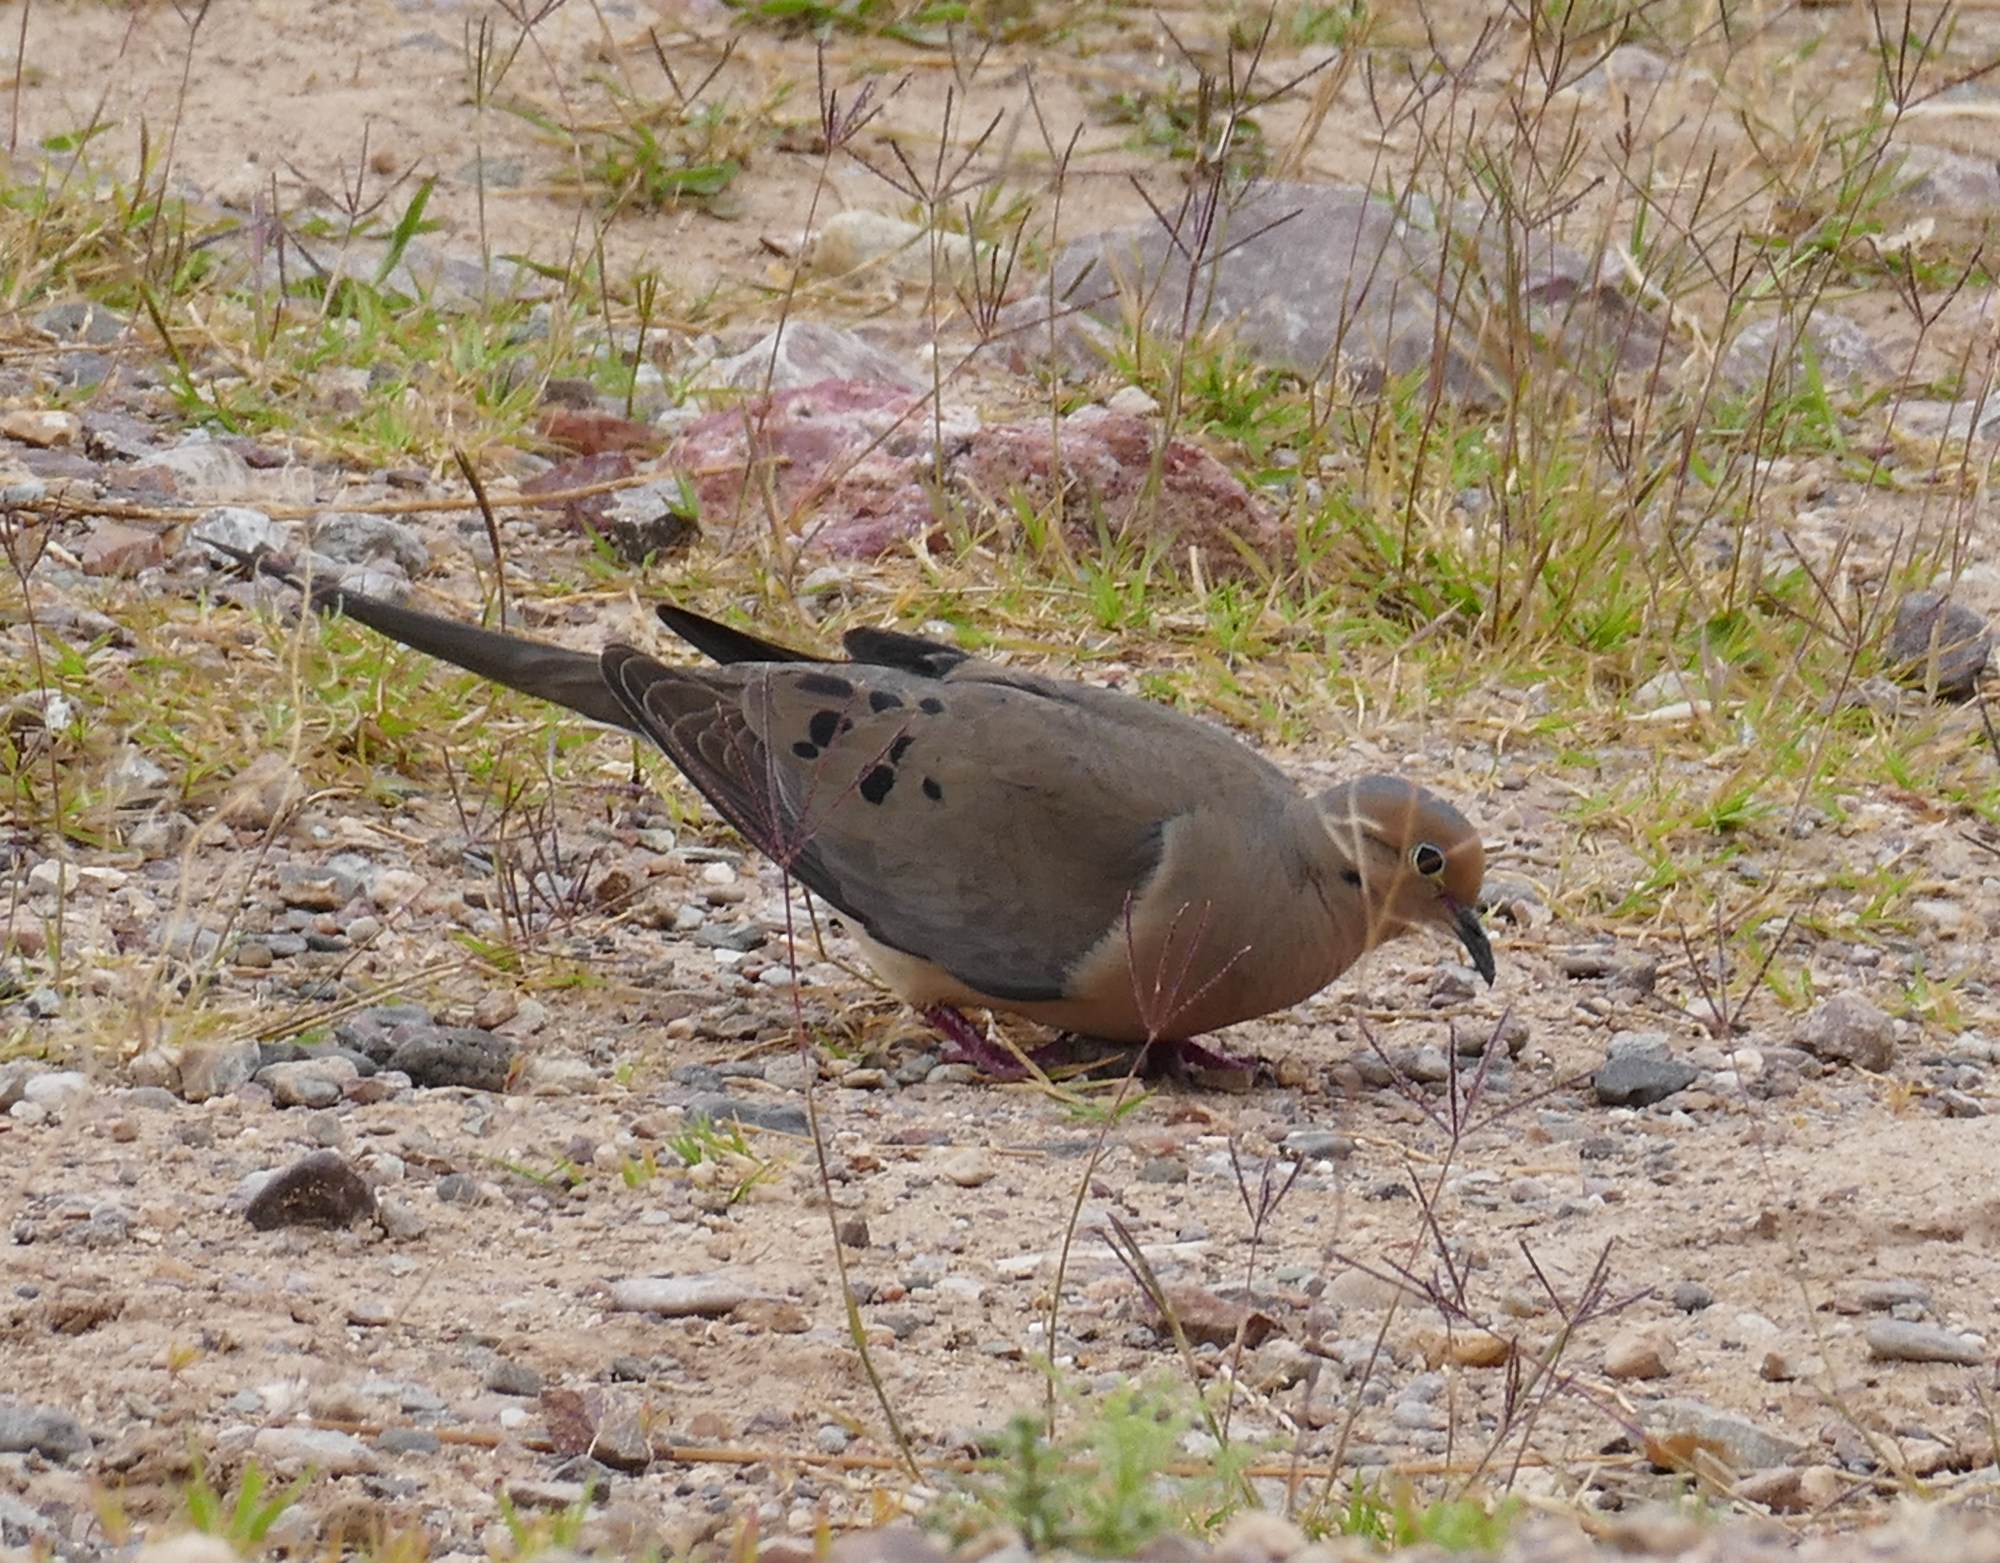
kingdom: Animalia
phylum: Chordata
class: Aves
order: Columbiformes
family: Columbidae
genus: Zenaida
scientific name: Zenaida macroura
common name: Mourning dove
